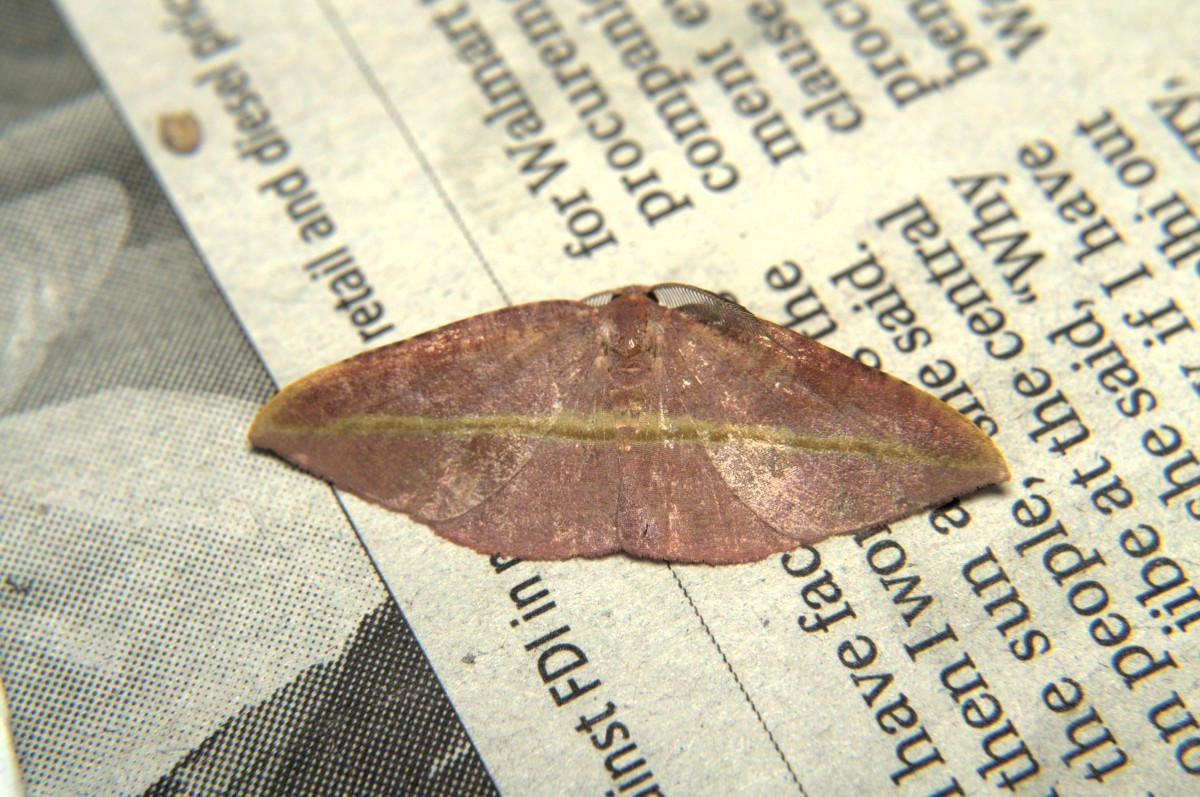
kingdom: Animalia
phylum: Arthropoda
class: Insecta
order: Lepidoptera
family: Geometridae
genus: Hypochrosis
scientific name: Hypochrosis iris
